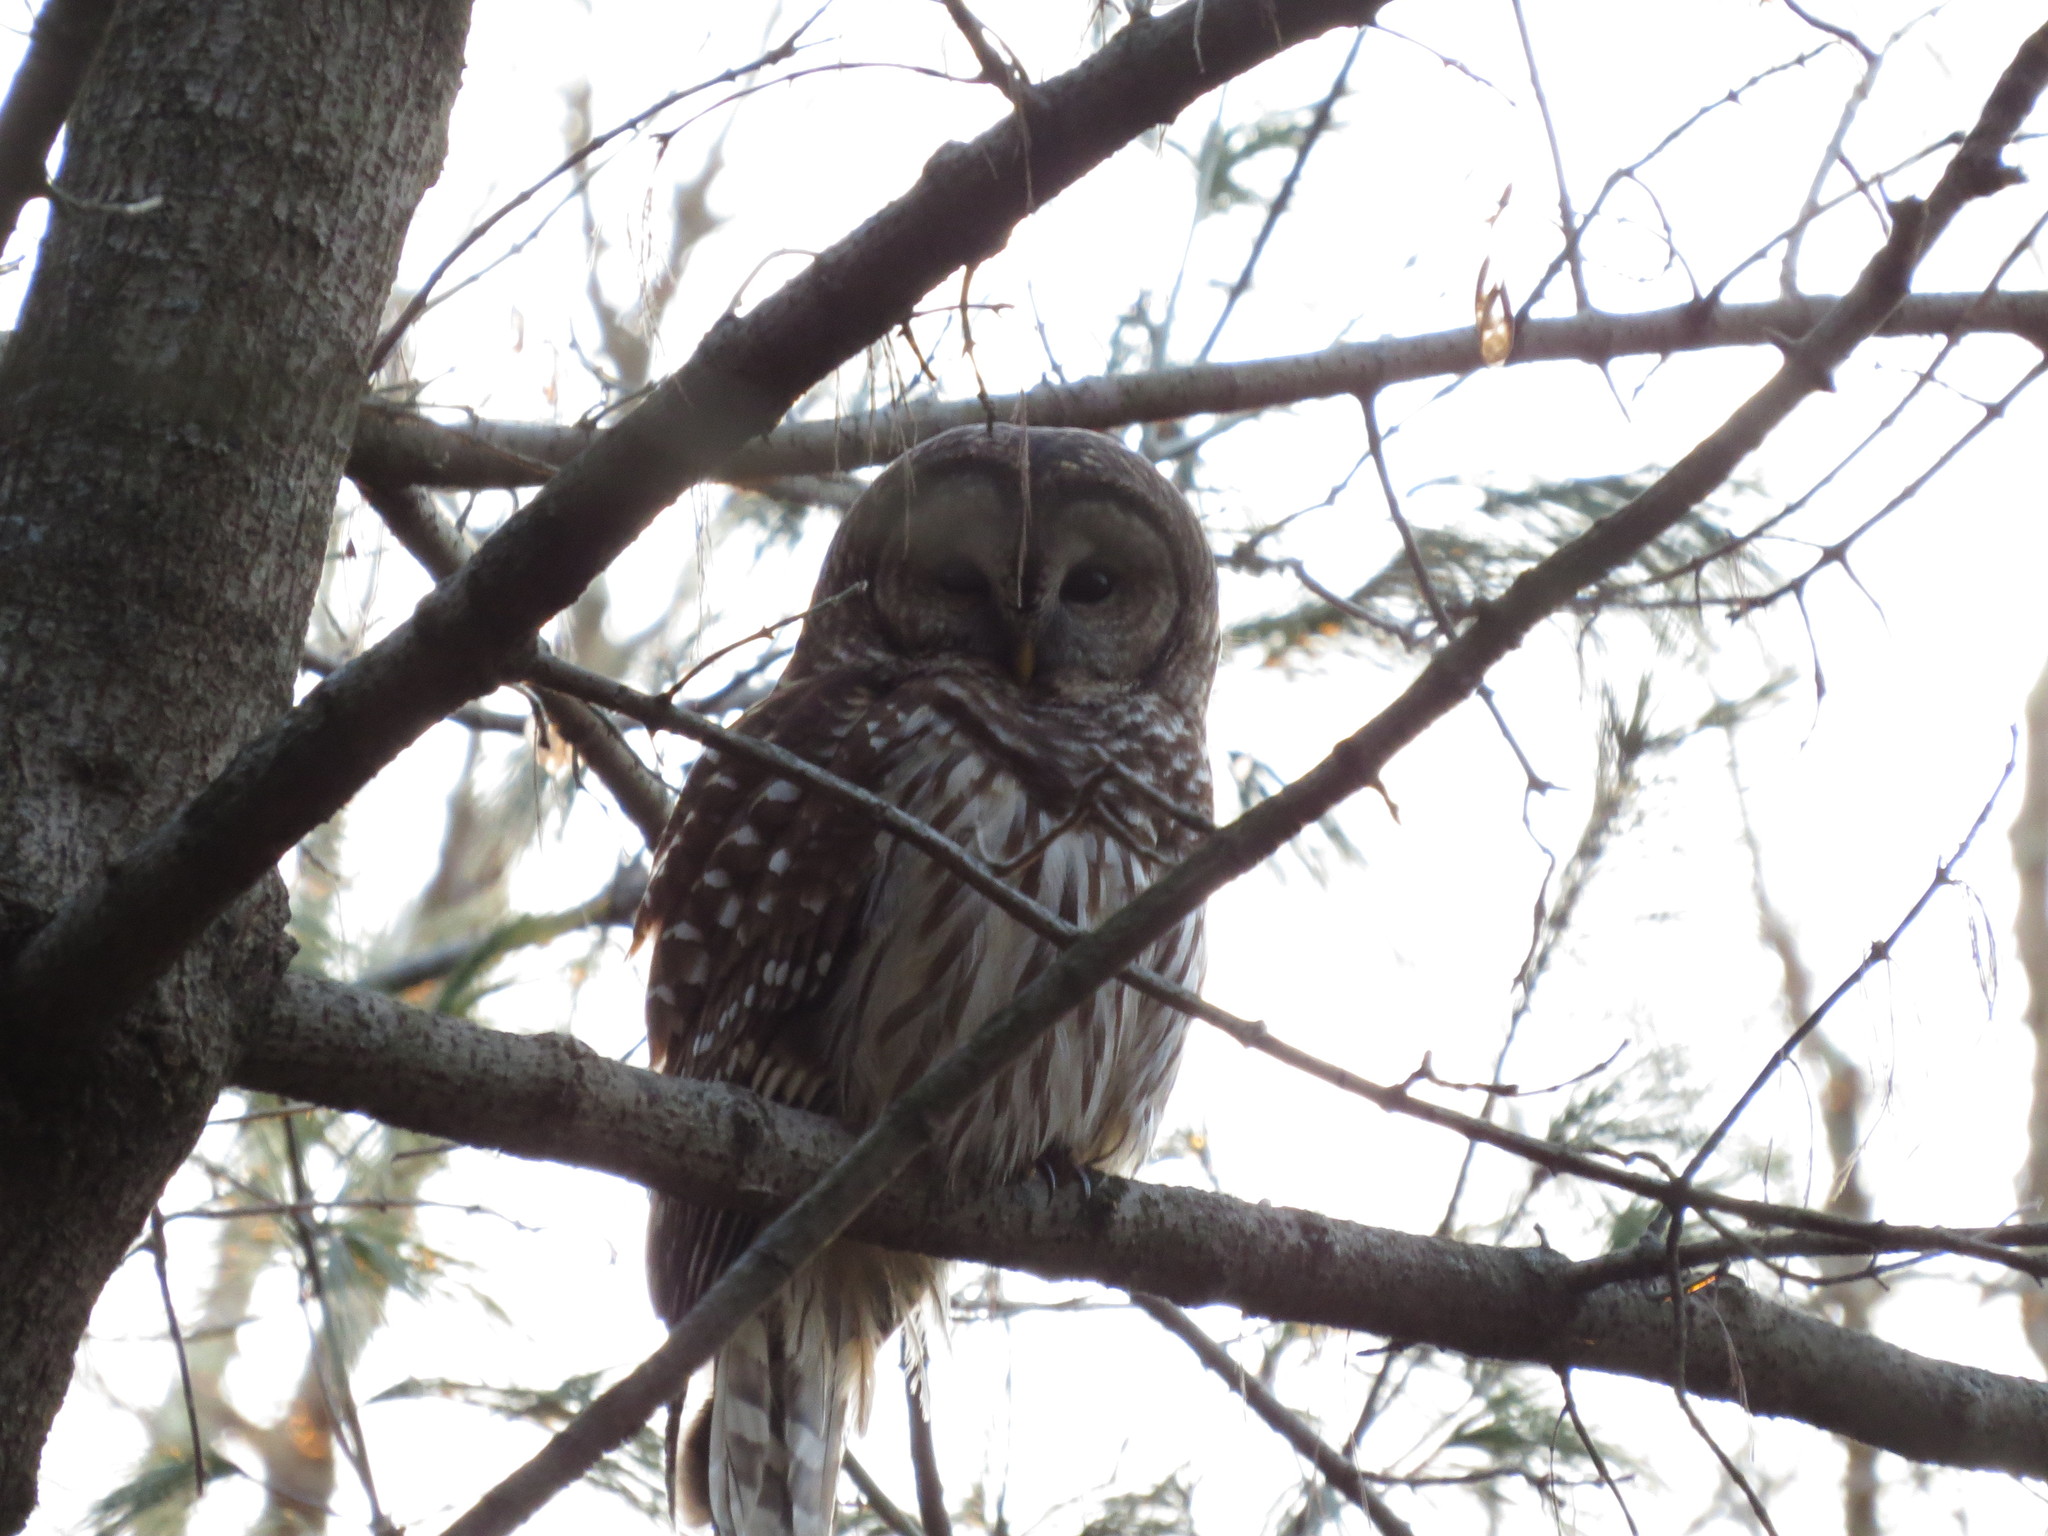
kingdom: Animalia
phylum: Chordata
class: Aves
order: Strigiformes
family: Strigidae
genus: Strix
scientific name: Strix varia
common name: Barred owl
